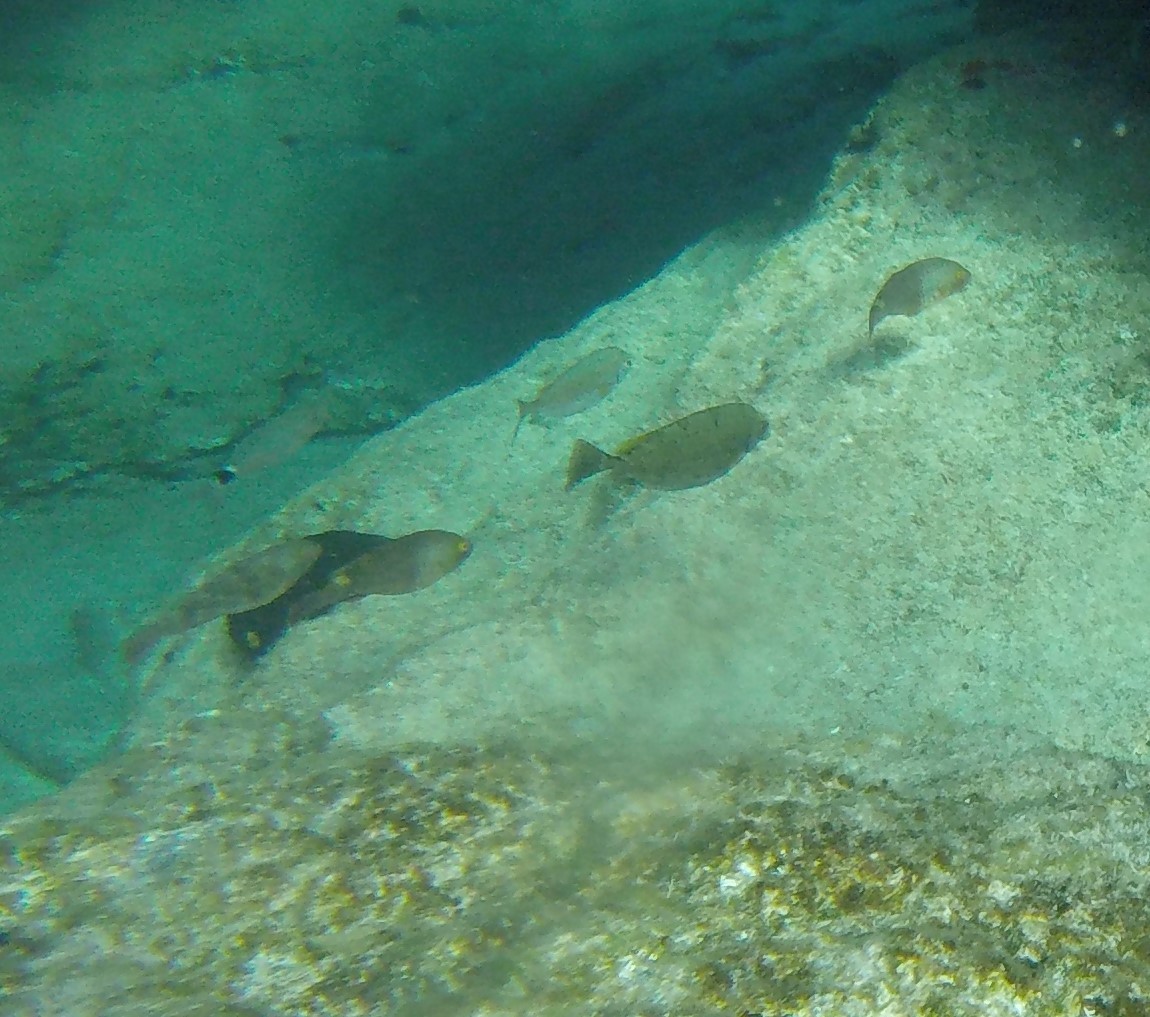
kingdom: Animalia
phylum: Chordata
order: Perciformes
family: Scaridae
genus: Sparisoma
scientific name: Sparisoma cretense
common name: Parrotfish
